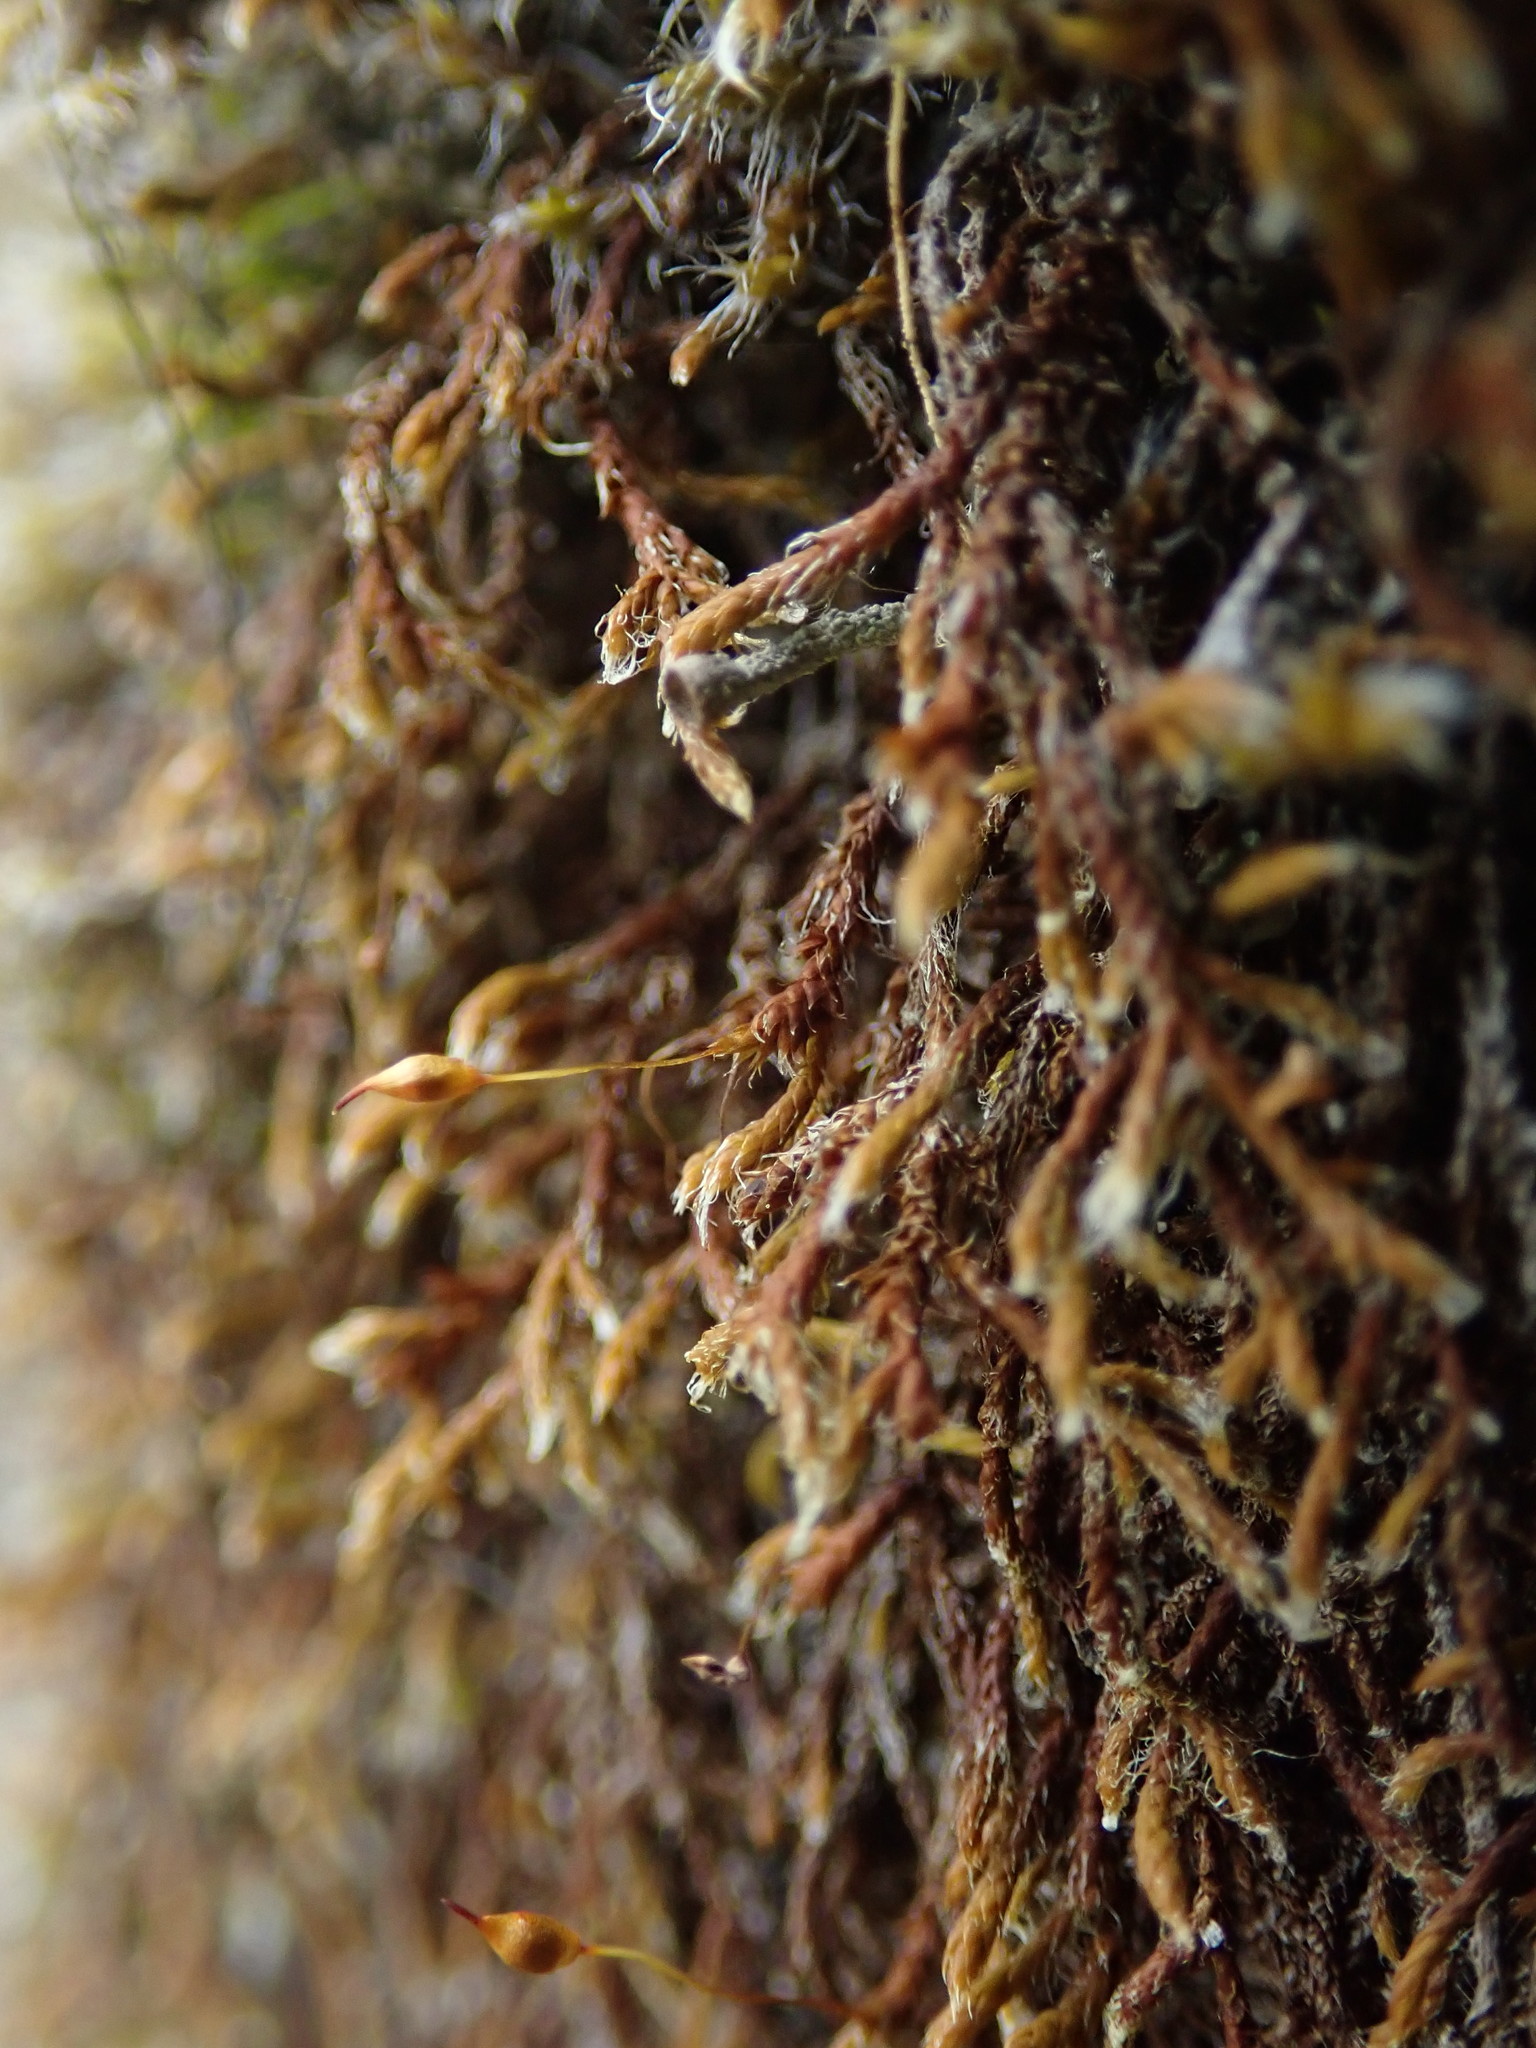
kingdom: Plantae
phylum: Bryophyta
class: Bryopsida
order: Hedwigiales
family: Hedwigiaceae
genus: Pseudobraunia
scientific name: Pseudobraunia californica
